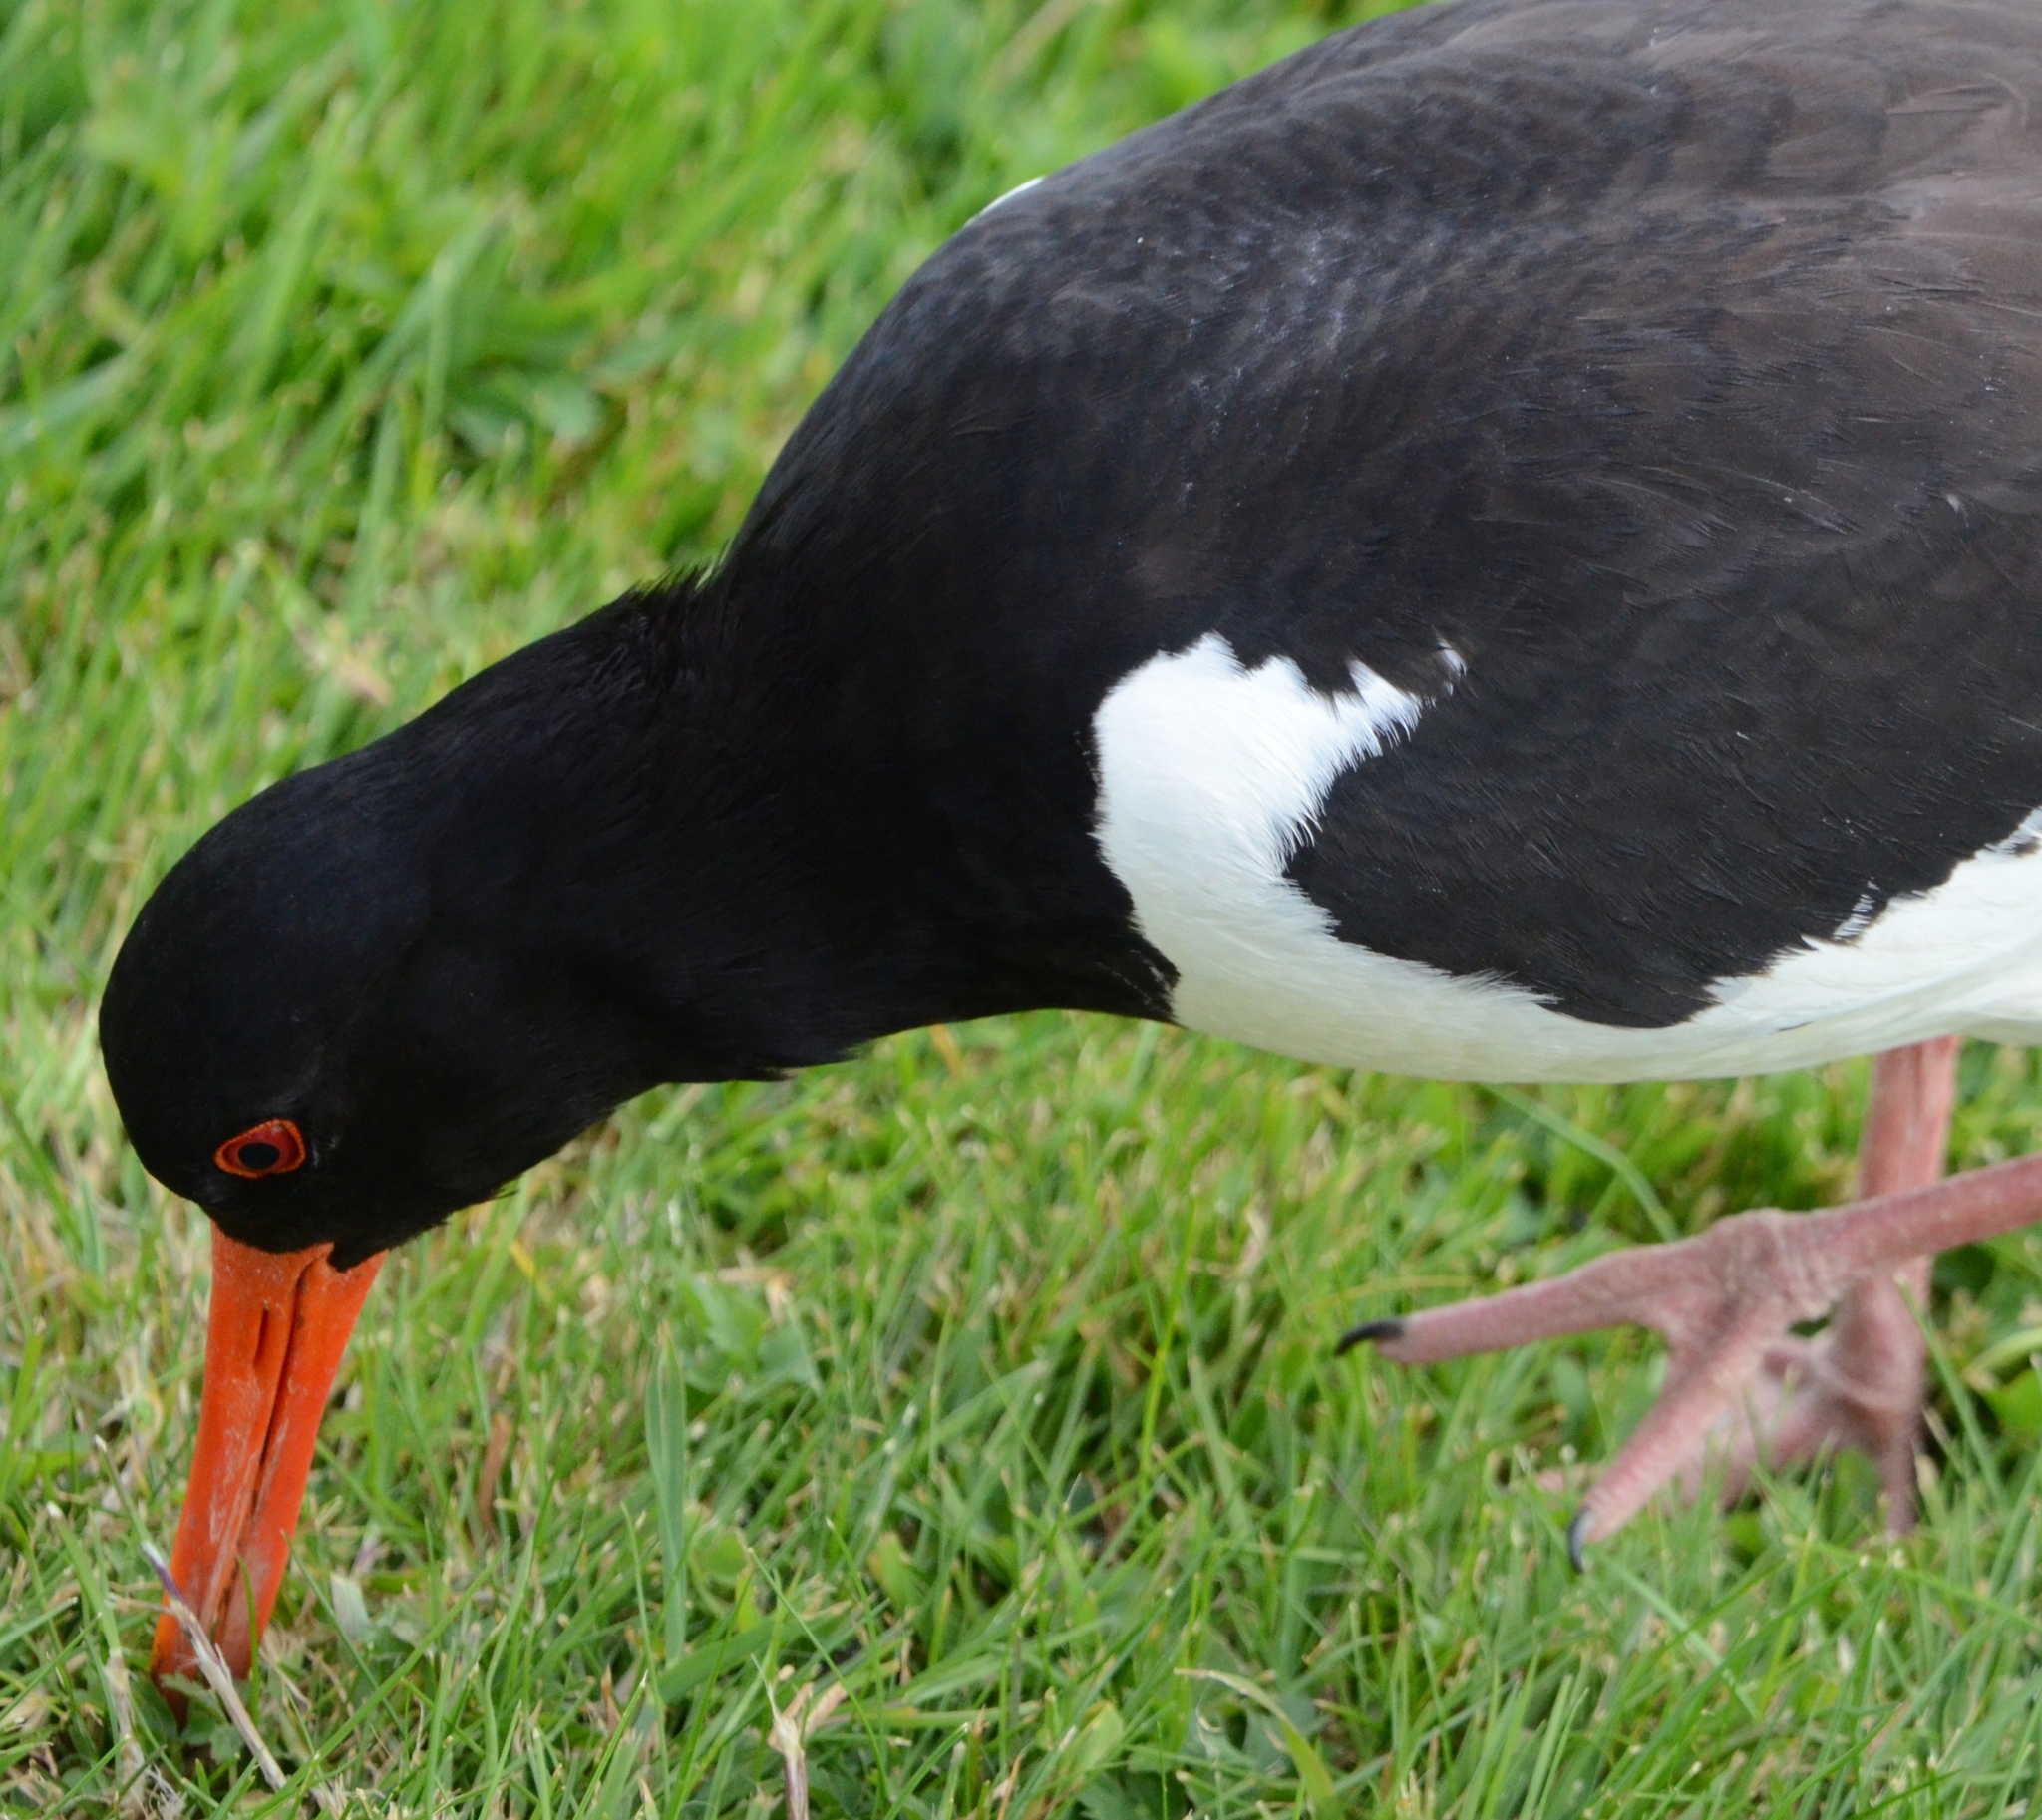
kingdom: Animalia
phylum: Chordata
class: Aves
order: Charadriiformes
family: Haematopodidae
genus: Haematopus
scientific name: Haematopus ostralegus
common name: Eurasian oystercatcher
